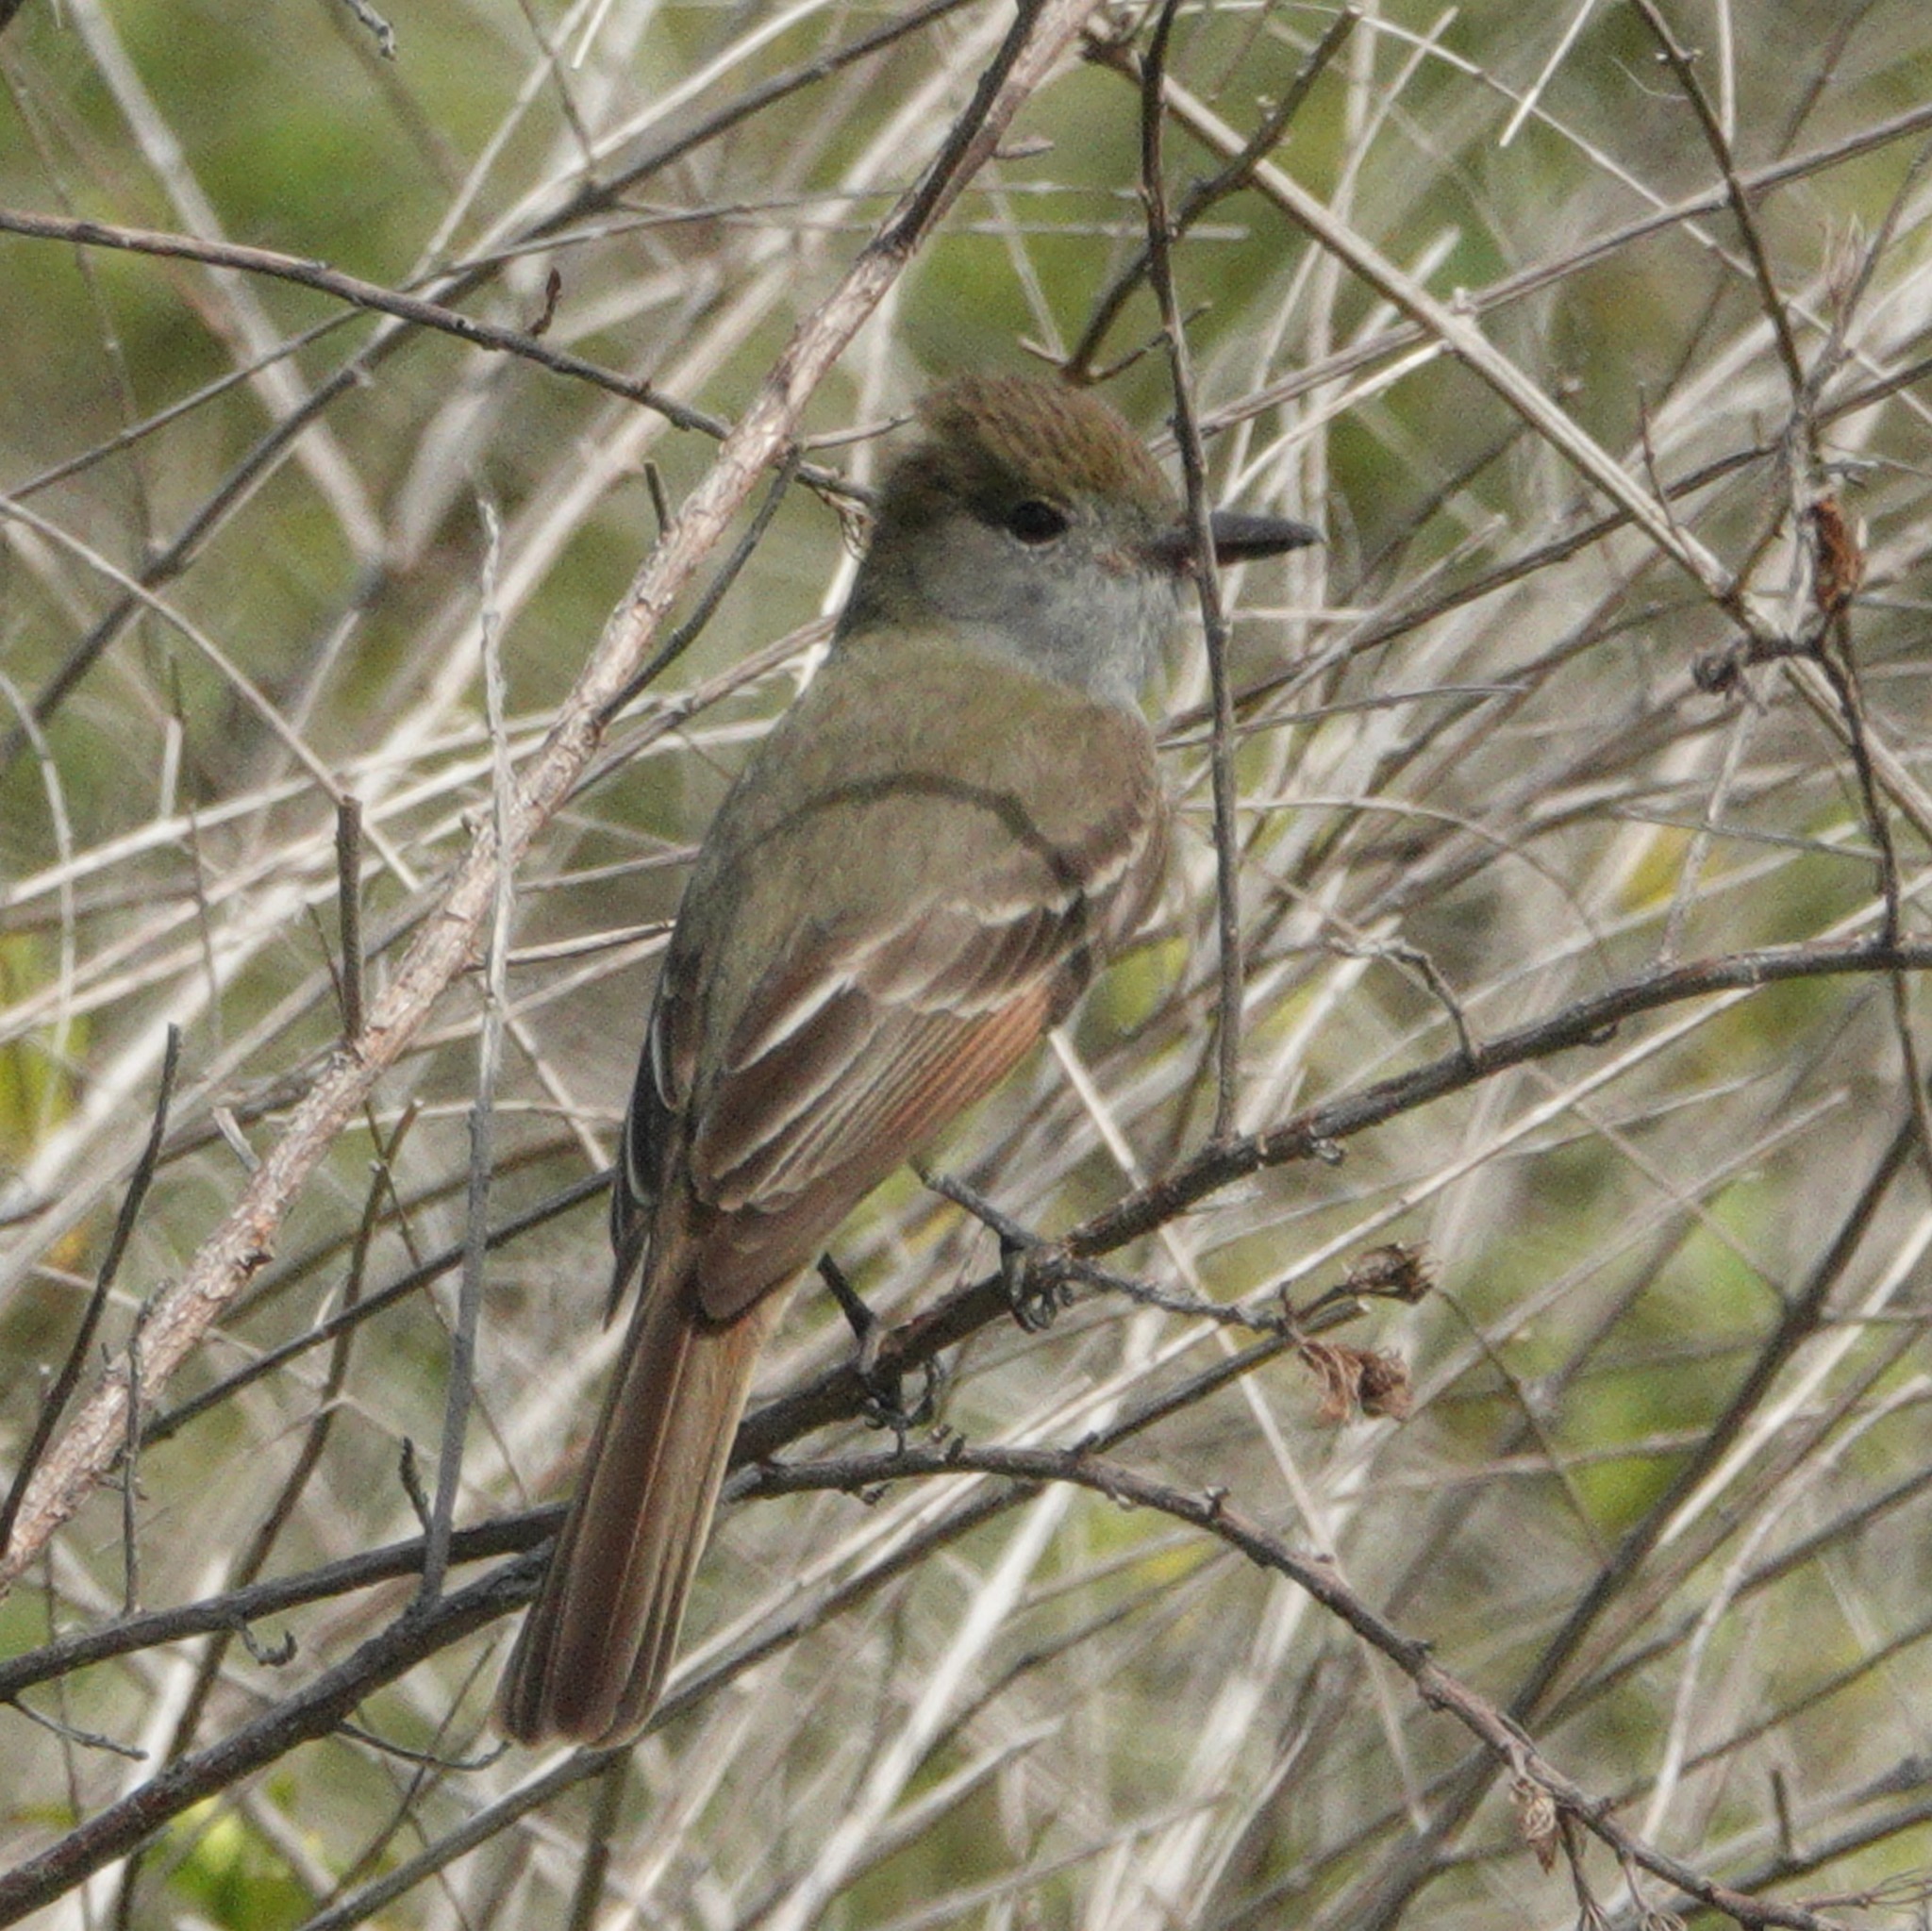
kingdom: Animalia
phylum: Chordata
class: Aves
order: Passeriformes
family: Tyrannidae
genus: Myiarchus
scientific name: Myiarchus crinitus
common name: Great crested flycatcher
